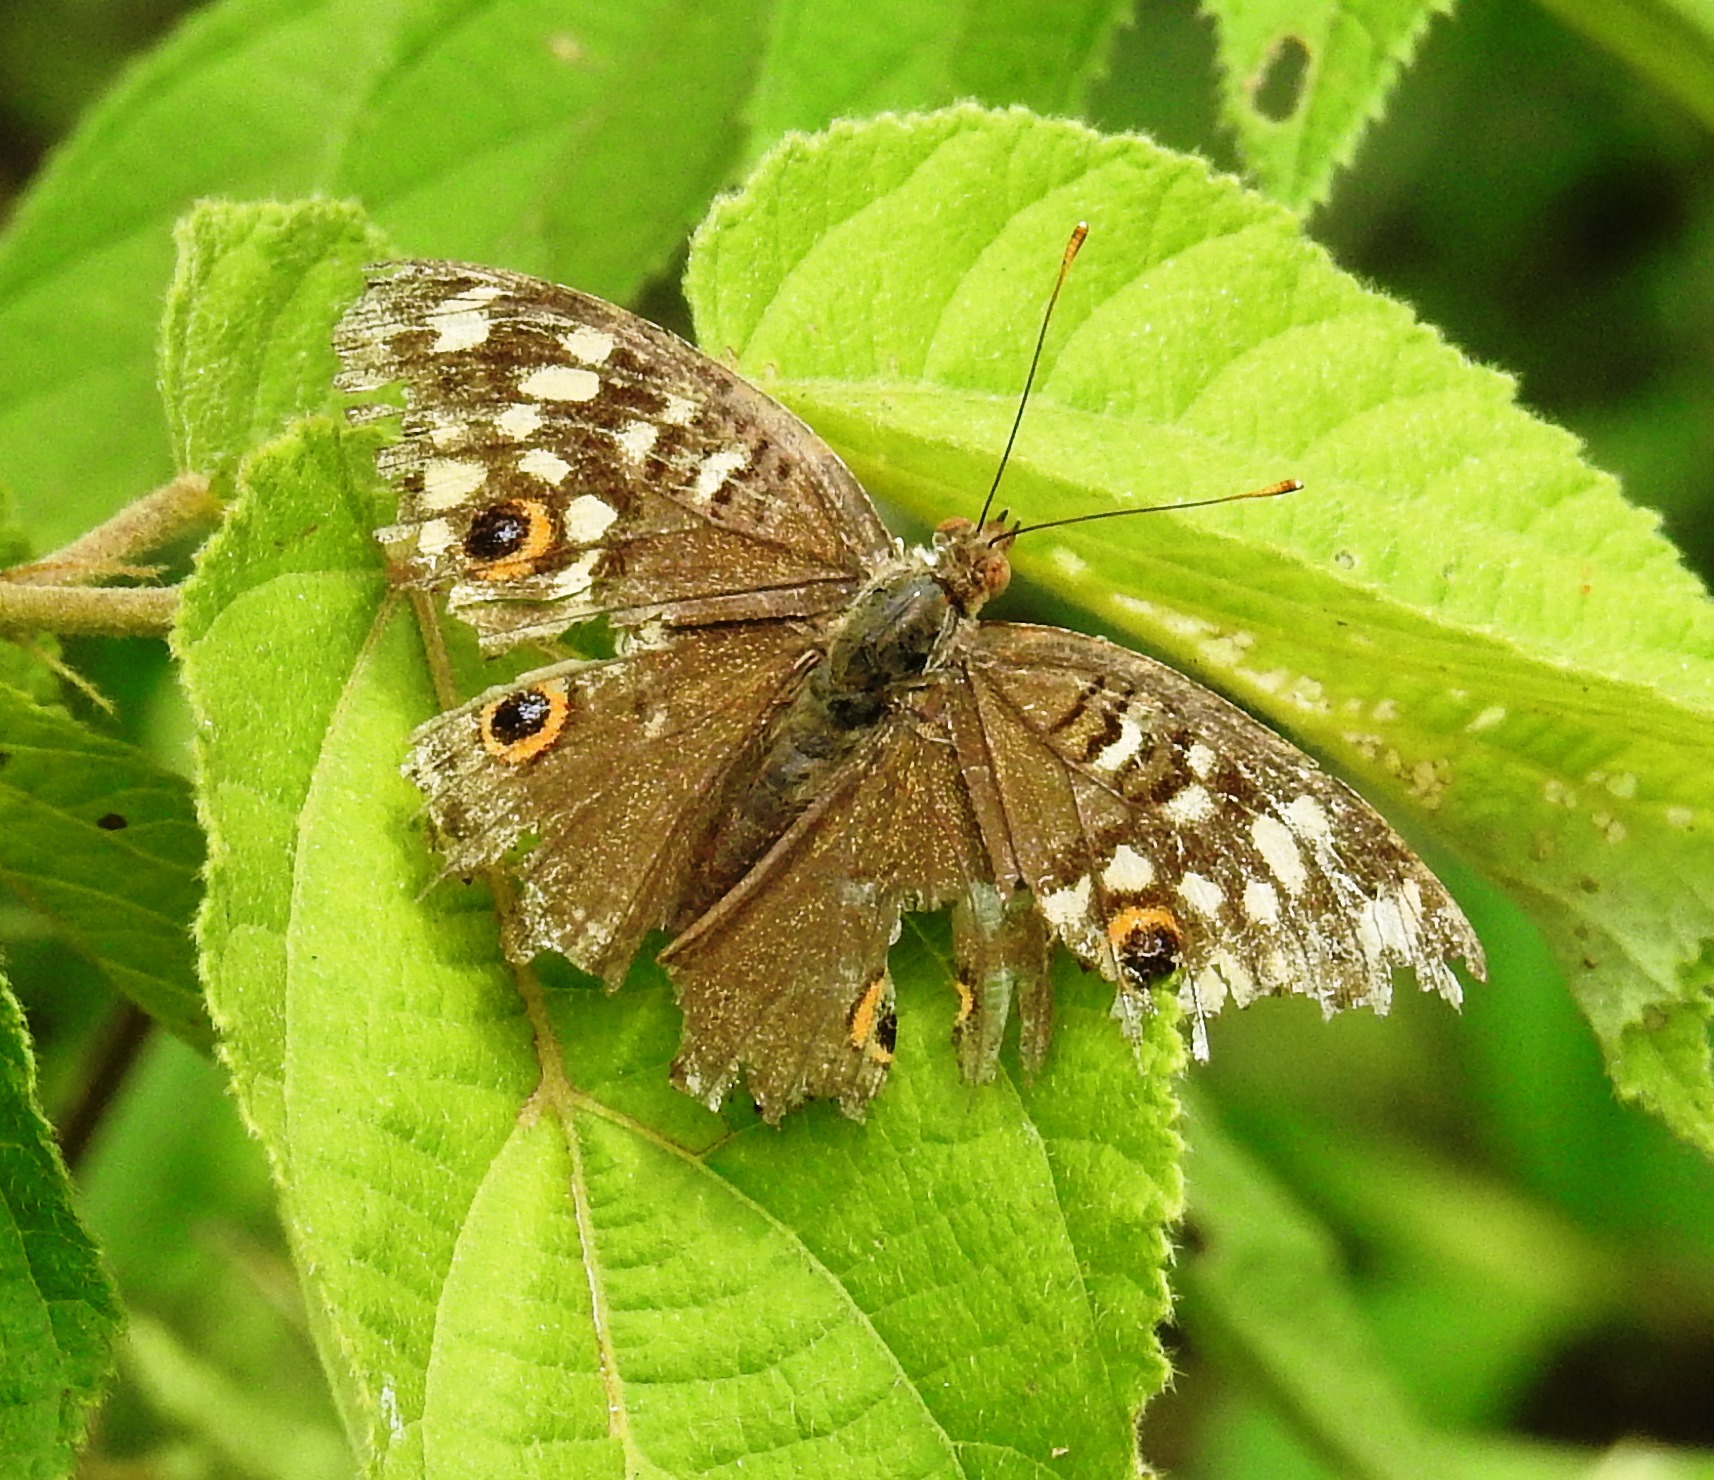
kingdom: Animalia
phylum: Arthropoda
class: Insecta
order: Lepidoptera
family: Nymphalidae
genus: Junonia
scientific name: Junonia lemonias
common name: Lemon pansy
